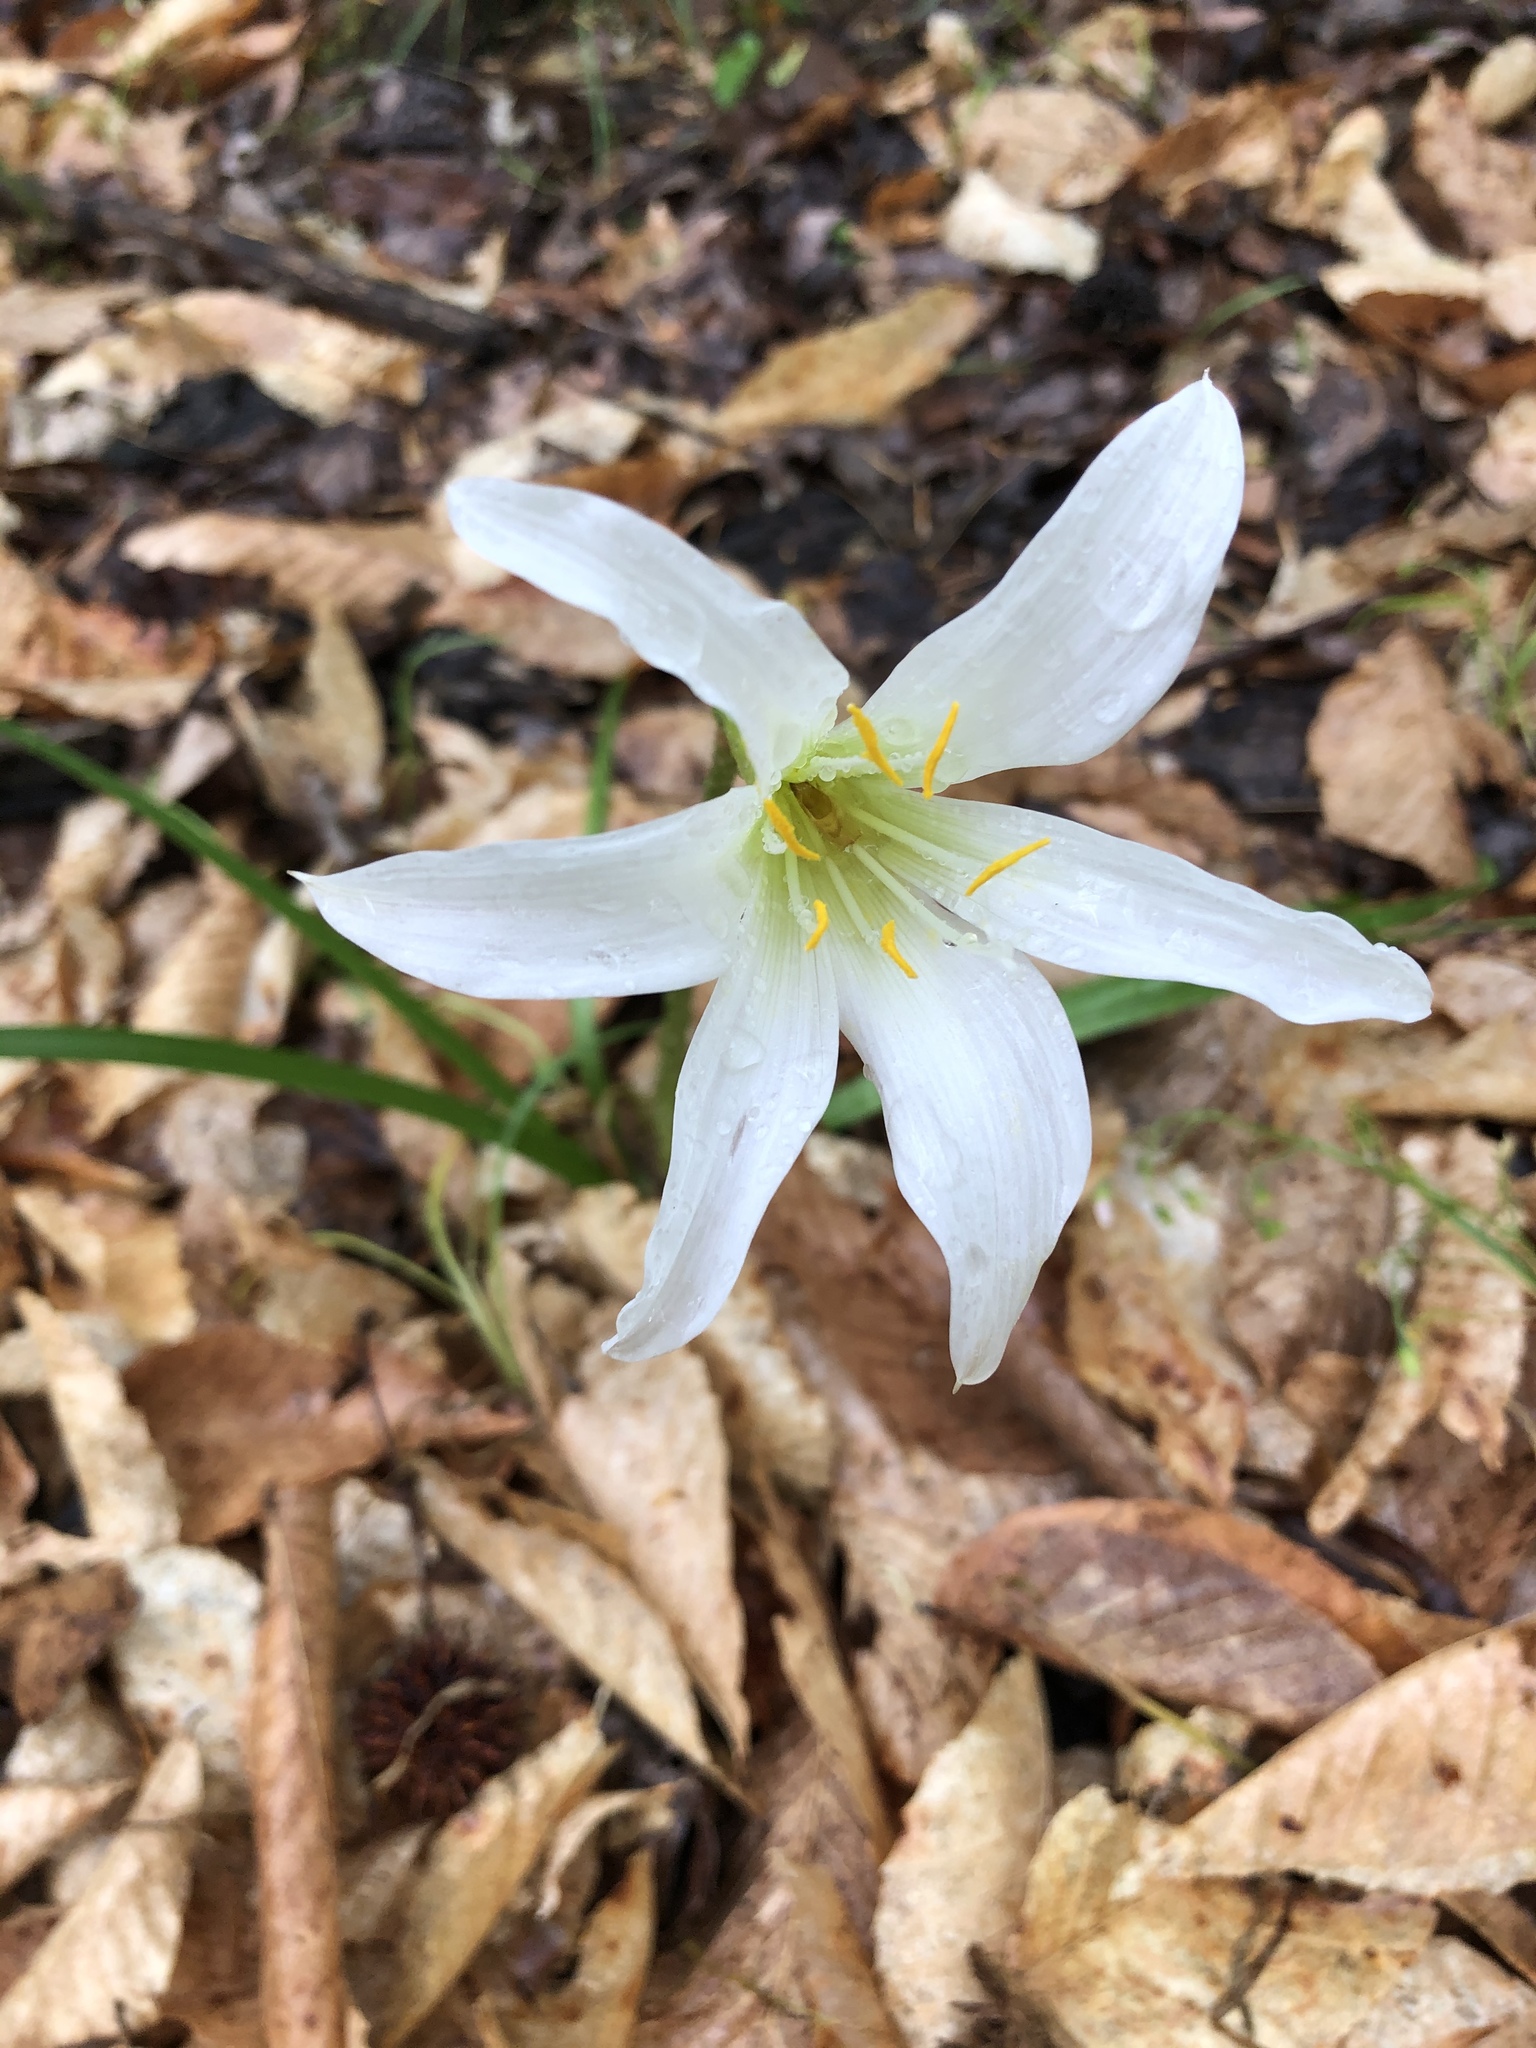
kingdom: Plantae
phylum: Tracheophyta
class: Liliopsida
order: Asparagales
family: Amaryllidaceae
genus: Zephyranthes
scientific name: Zephyranthes atamasco
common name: Atamasco lily
